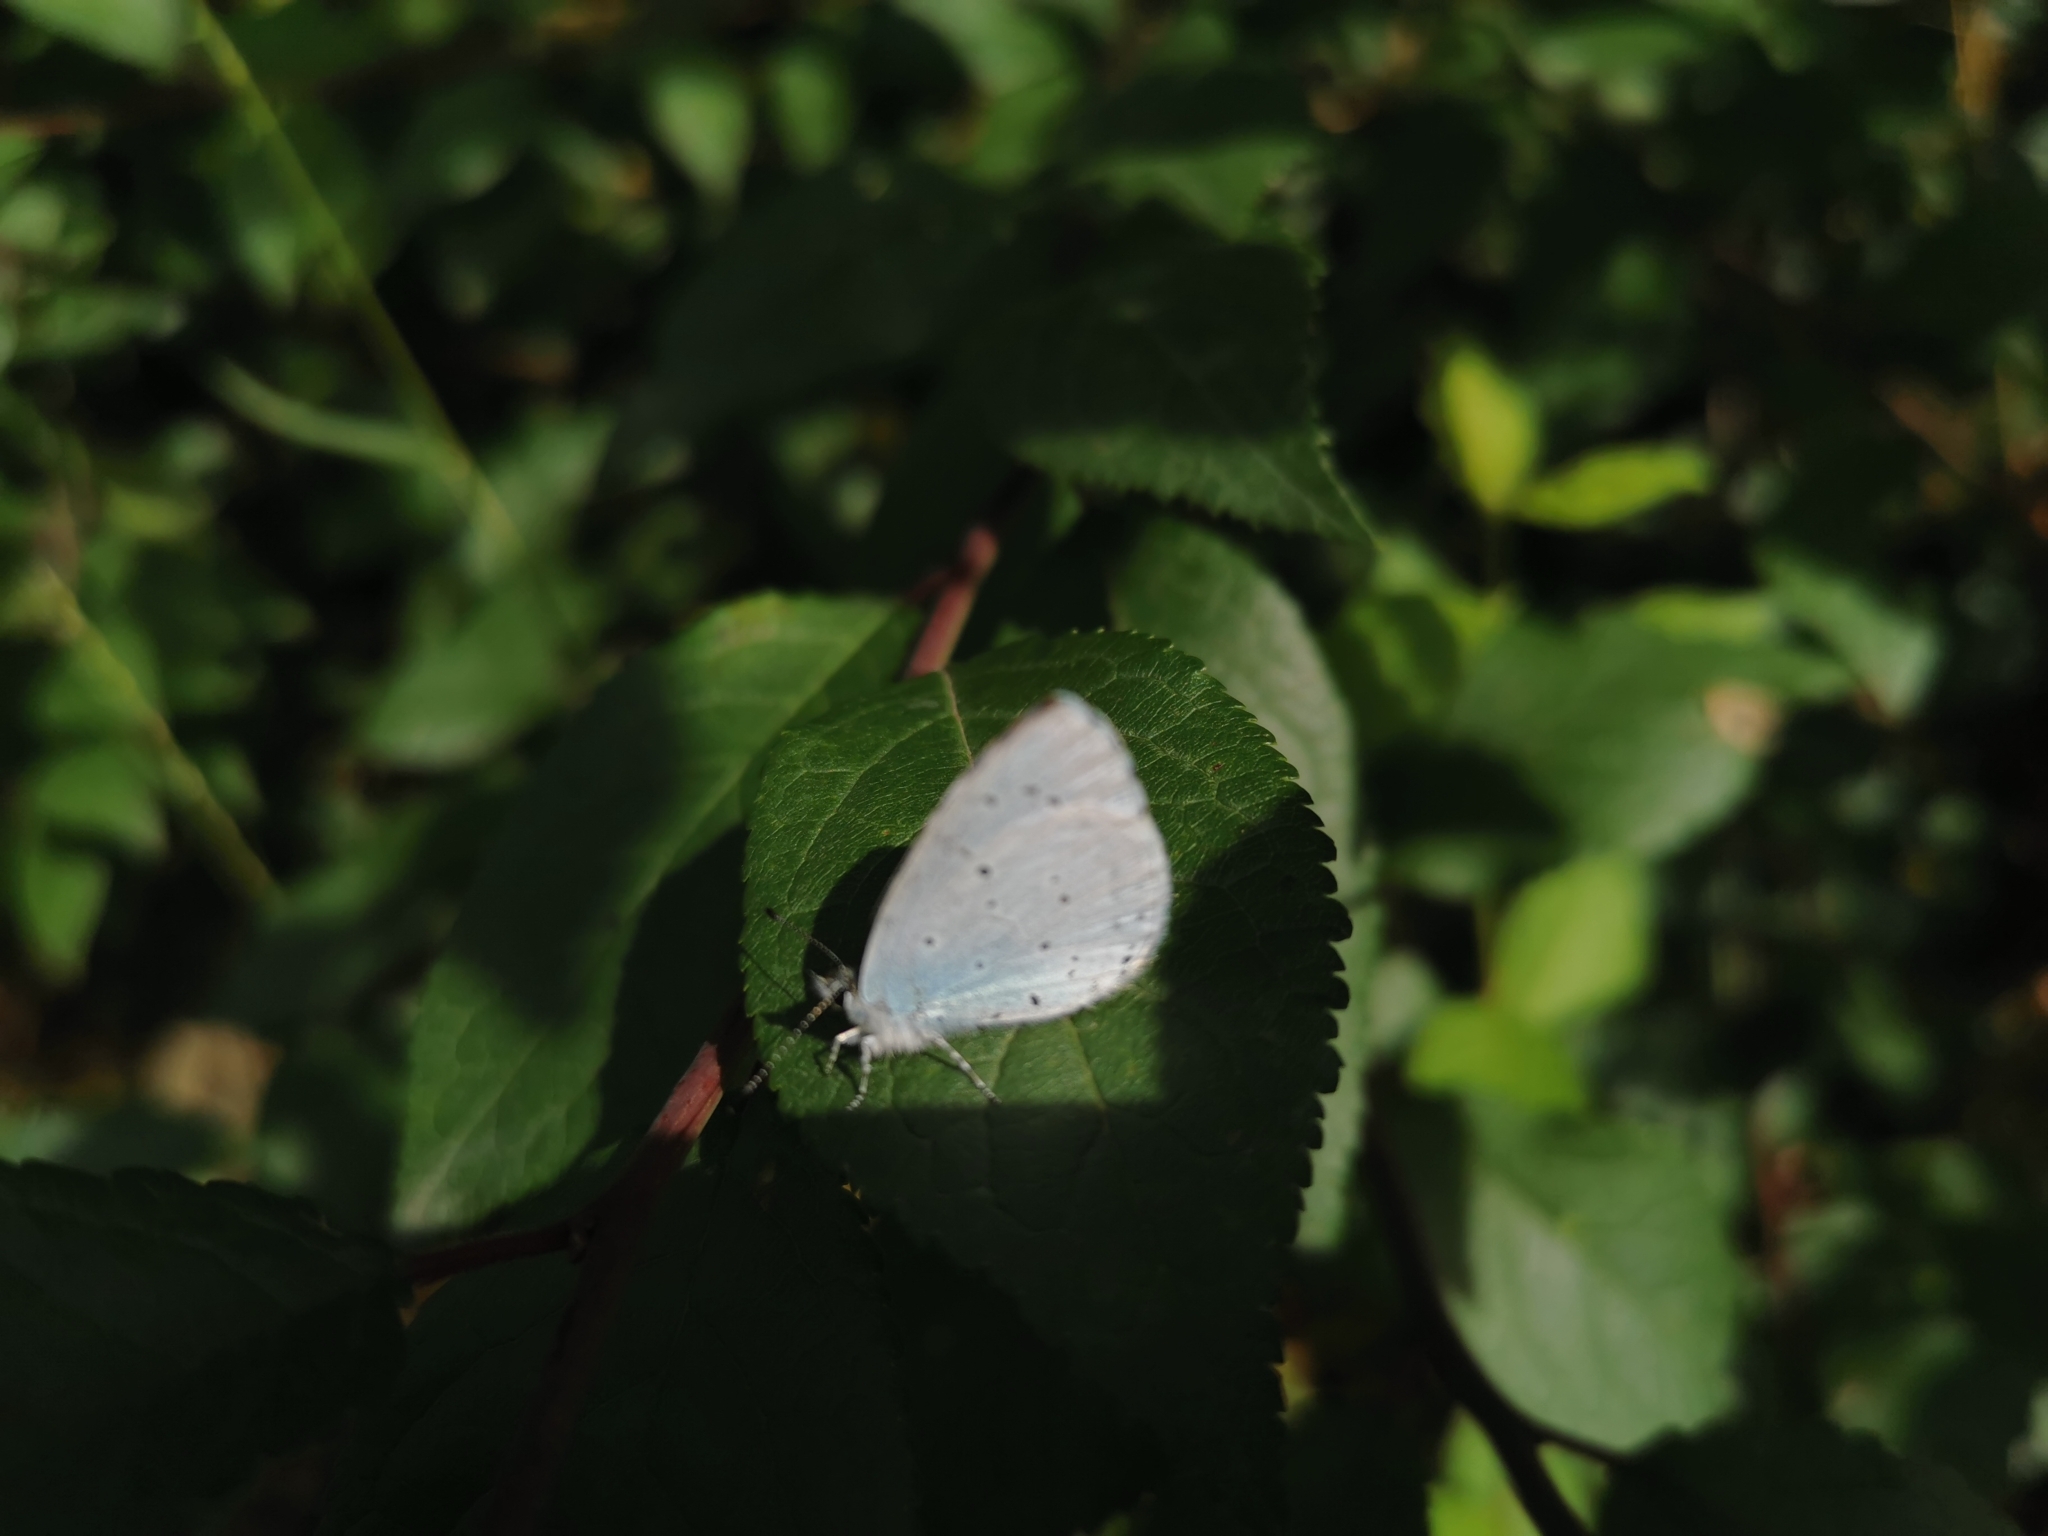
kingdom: Animalia
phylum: Arthropoda
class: Insecta
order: Lepidoptera
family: Lycaenidae
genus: Celastrina
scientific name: Celastrina argiolus
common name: Holly blue
